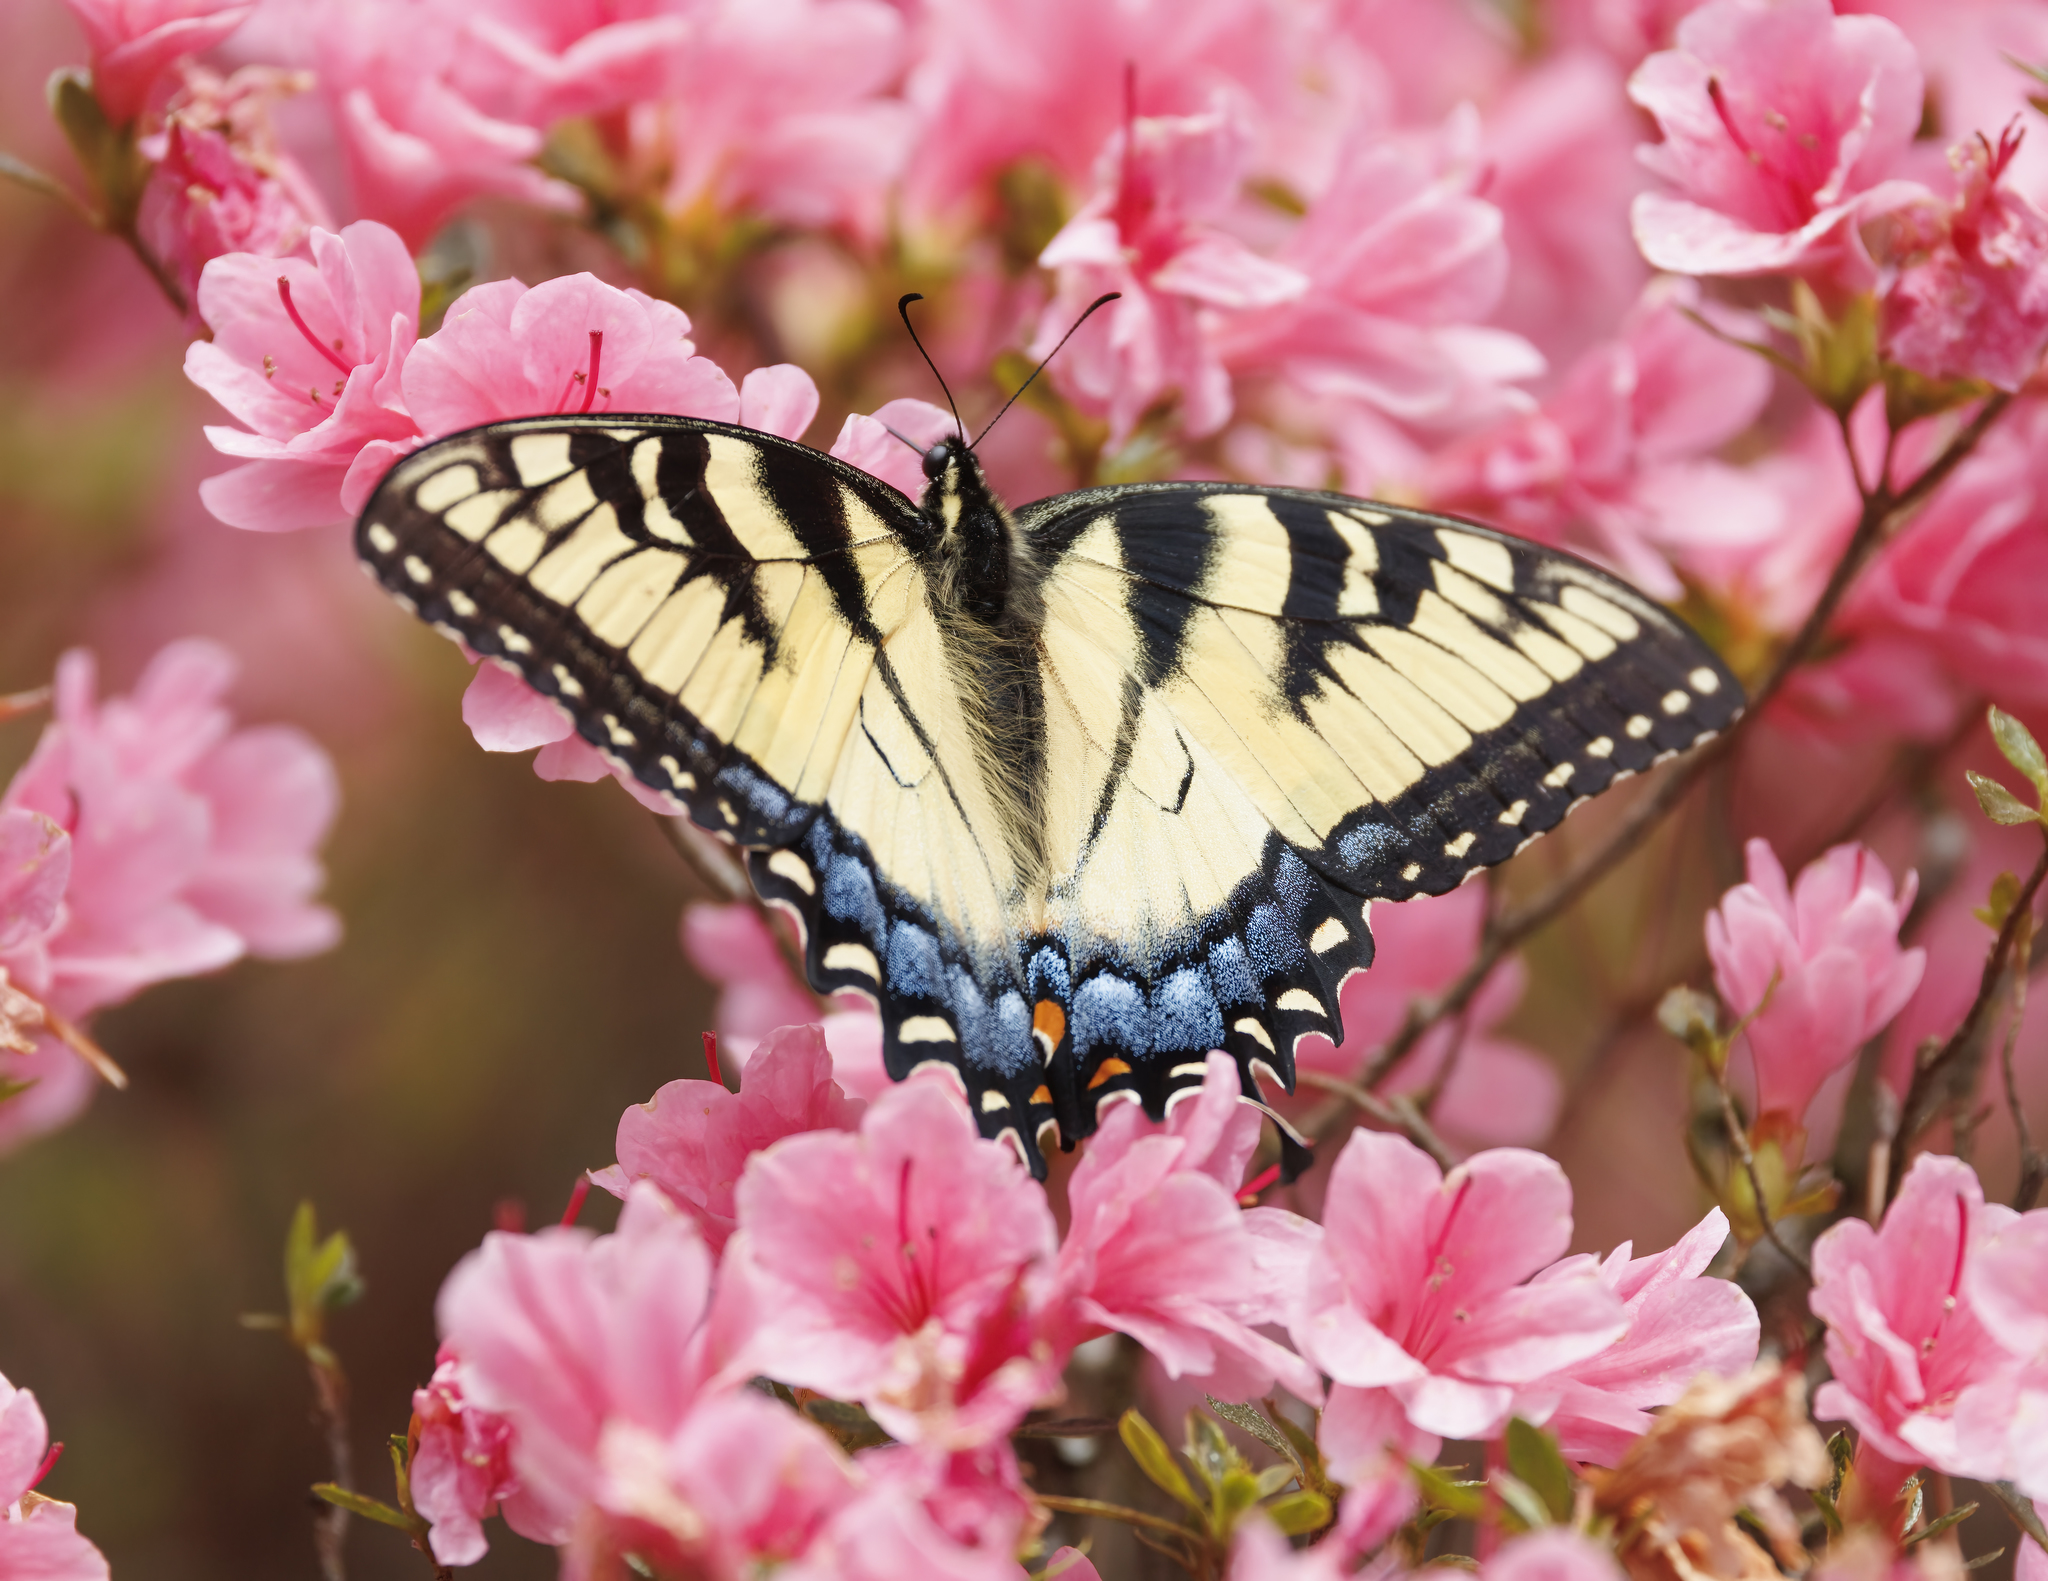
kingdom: Animalia
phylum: Arthropoda
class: Insecta
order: Lepidoptera
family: Papilionidae
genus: Papilio
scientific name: Papilio glaucus
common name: Tiger swallowtail
